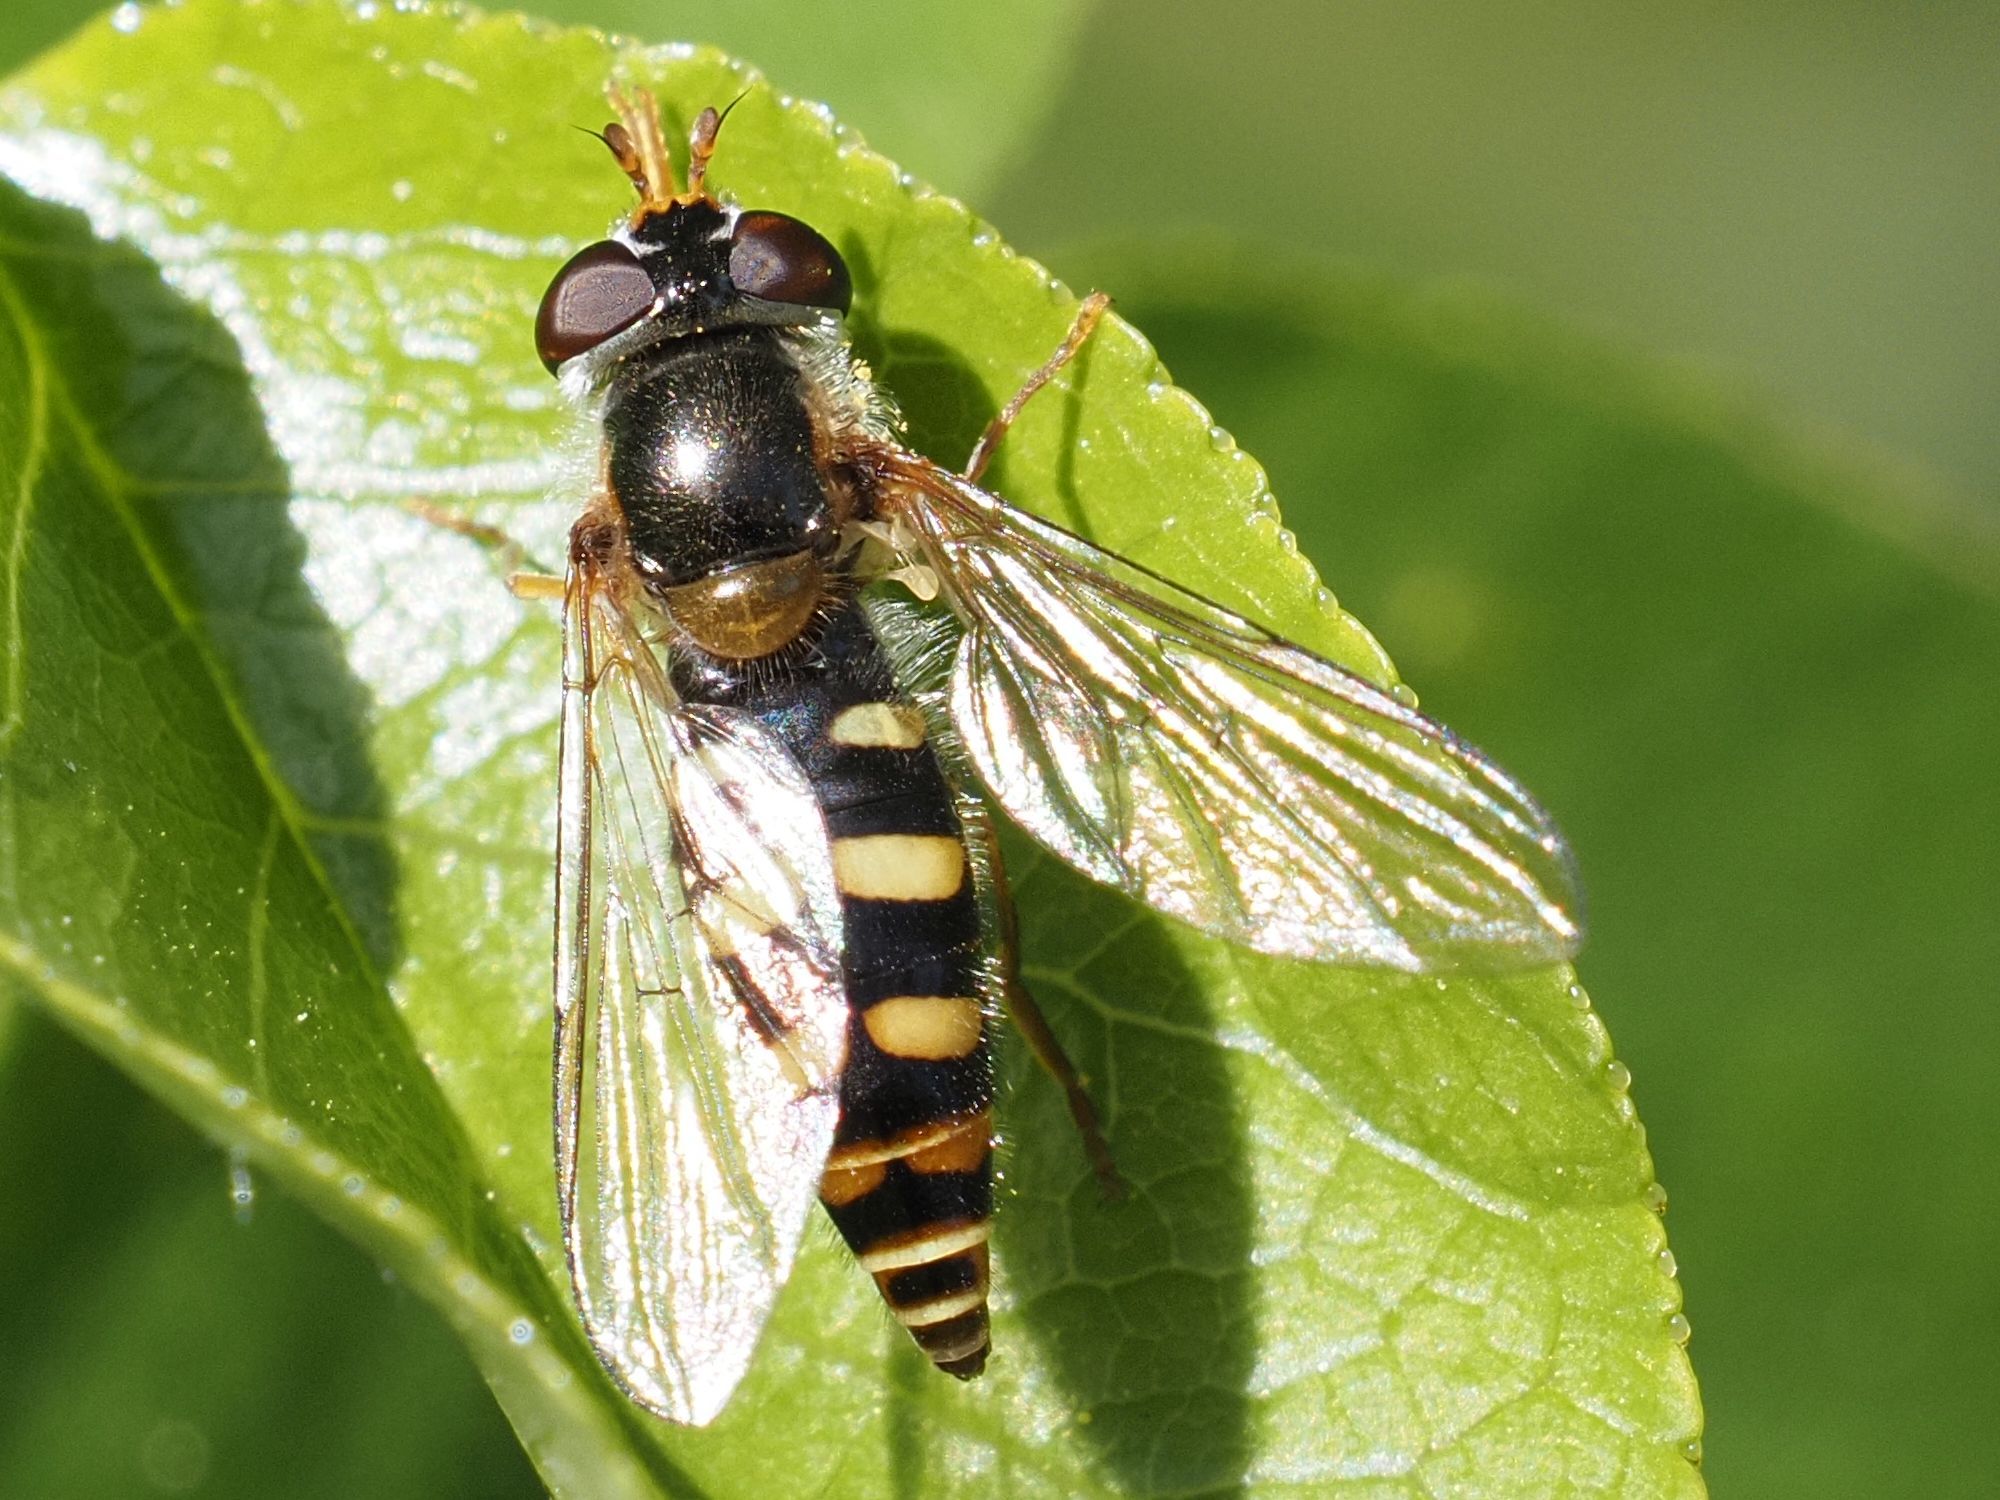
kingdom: Animalia
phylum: Arthropoda
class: Insecta
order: Diptera
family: Syrphidae
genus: Epistrophella
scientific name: Epistrophella euchromus
